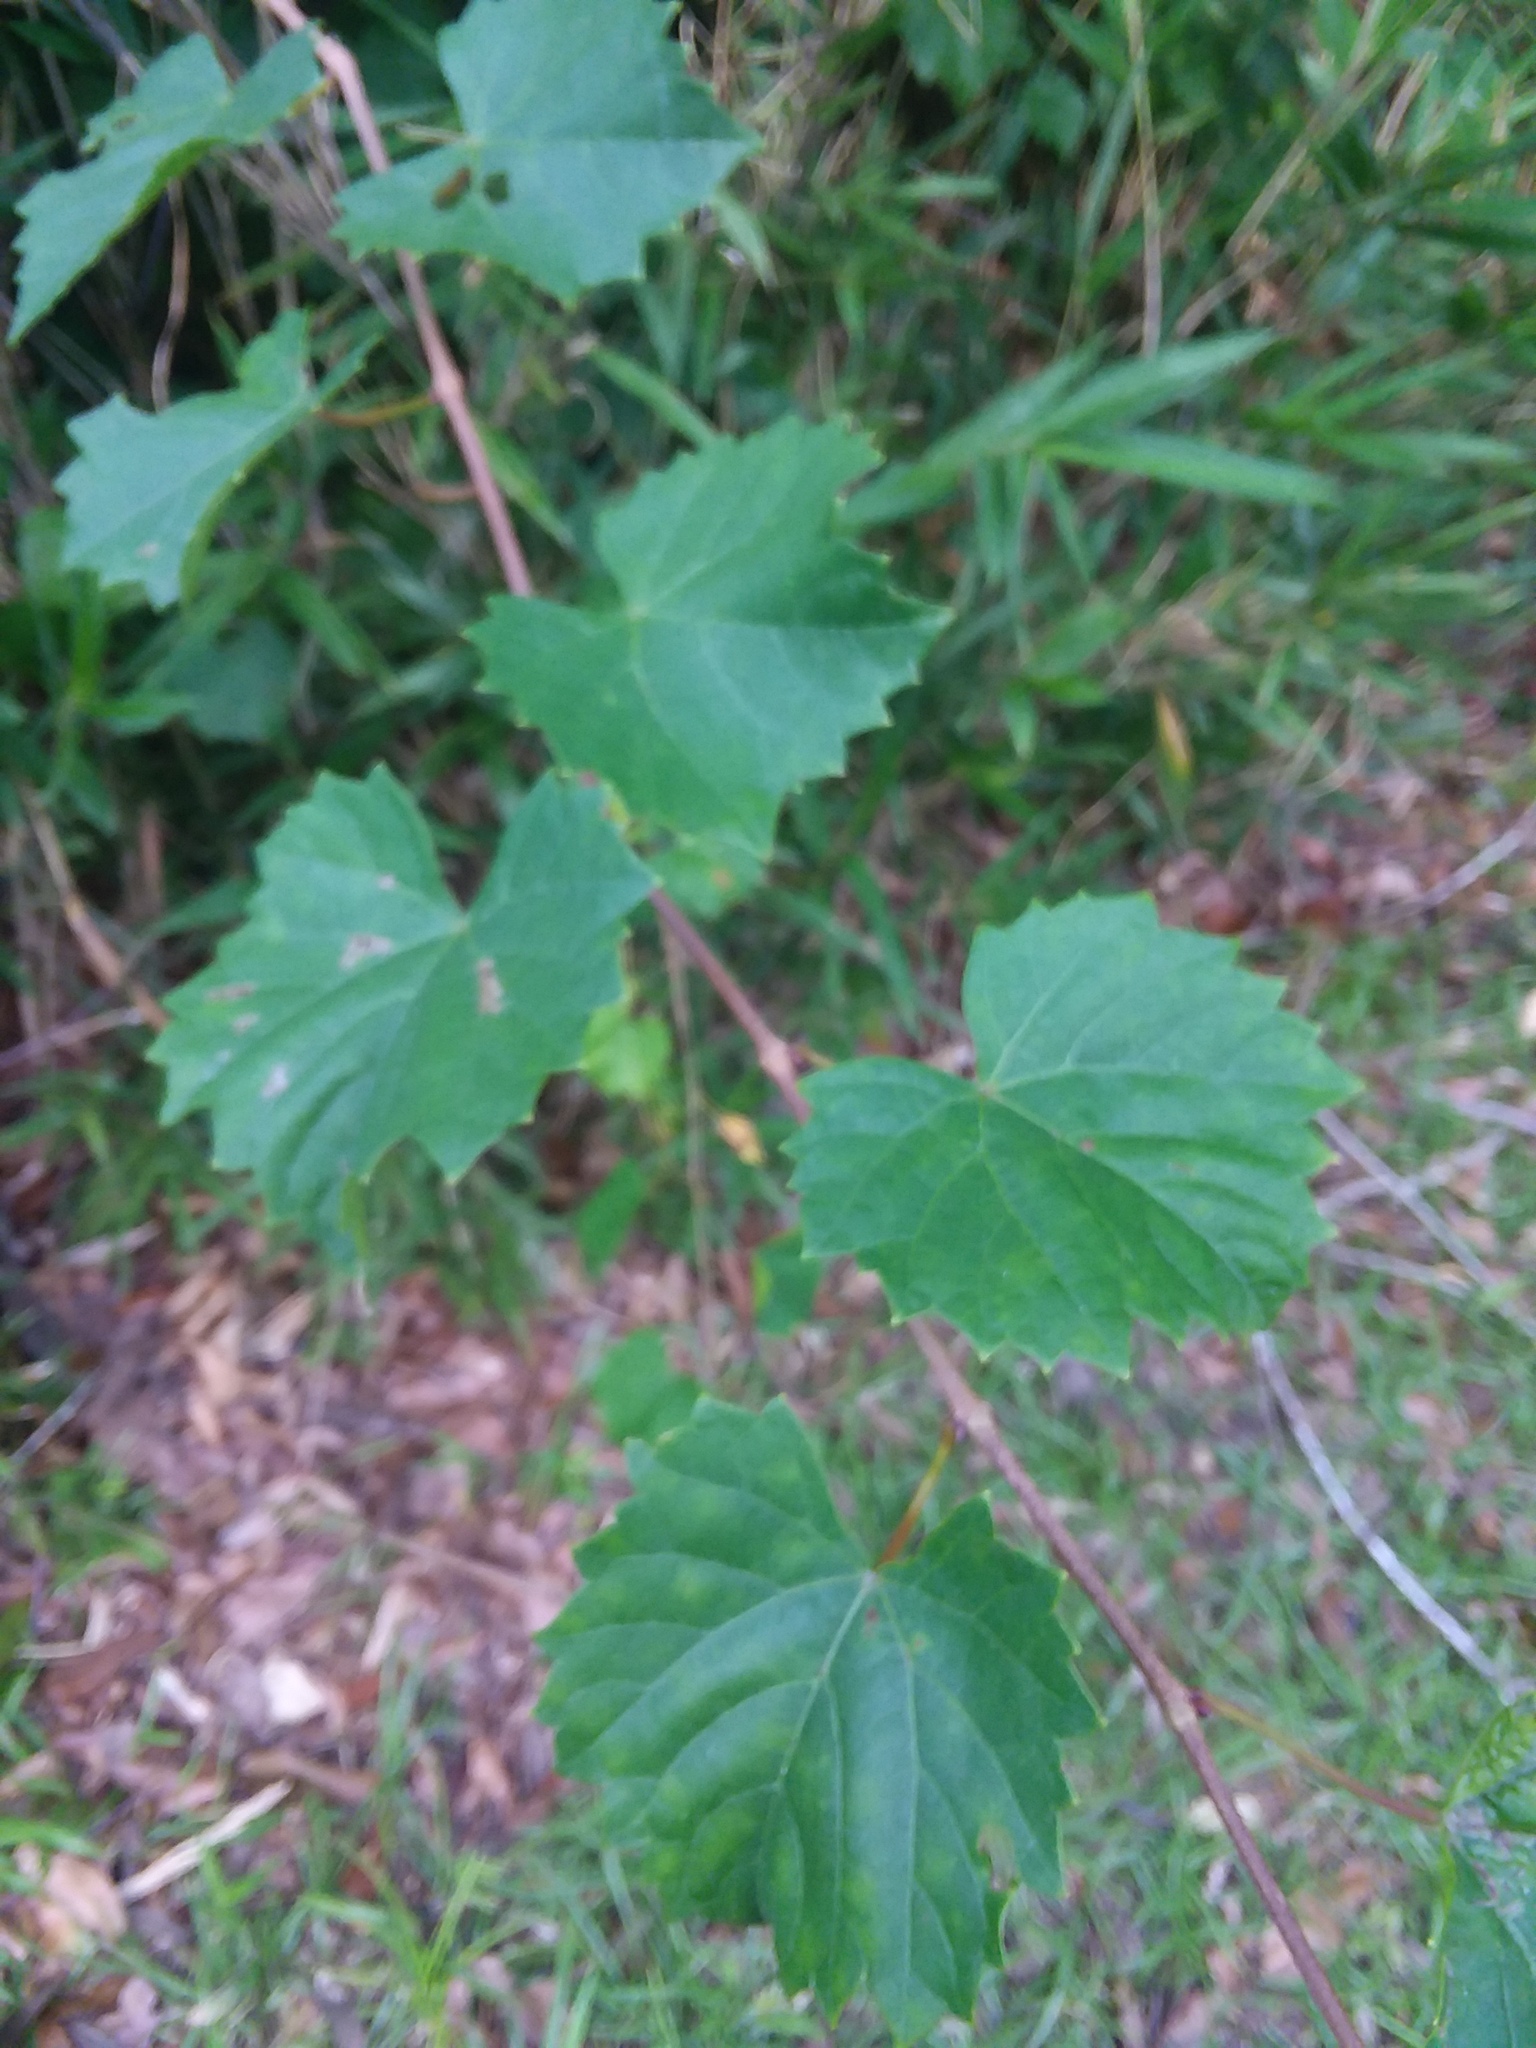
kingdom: Plantae
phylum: Tracheophyta
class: Magnoliopsida
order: Vitales
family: Vitaceae
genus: Vitis
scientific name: Vitis rotundifolia
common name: Muscadine grape
